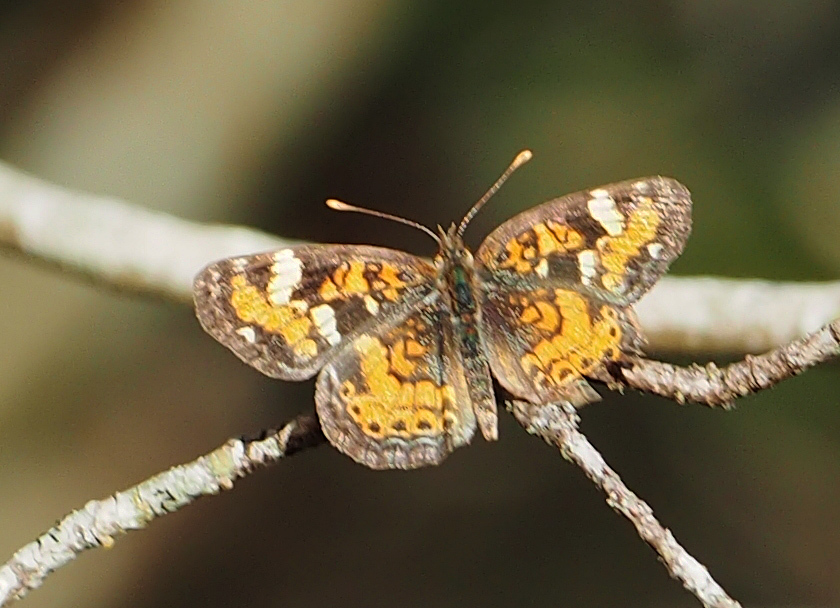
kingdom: Animalia
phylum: Arthropoda
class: Insecta
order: Lepidoptera
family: Nymphalidae
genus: Phyciodes
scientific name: Phyciodes phaon
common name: Phaon crescent
